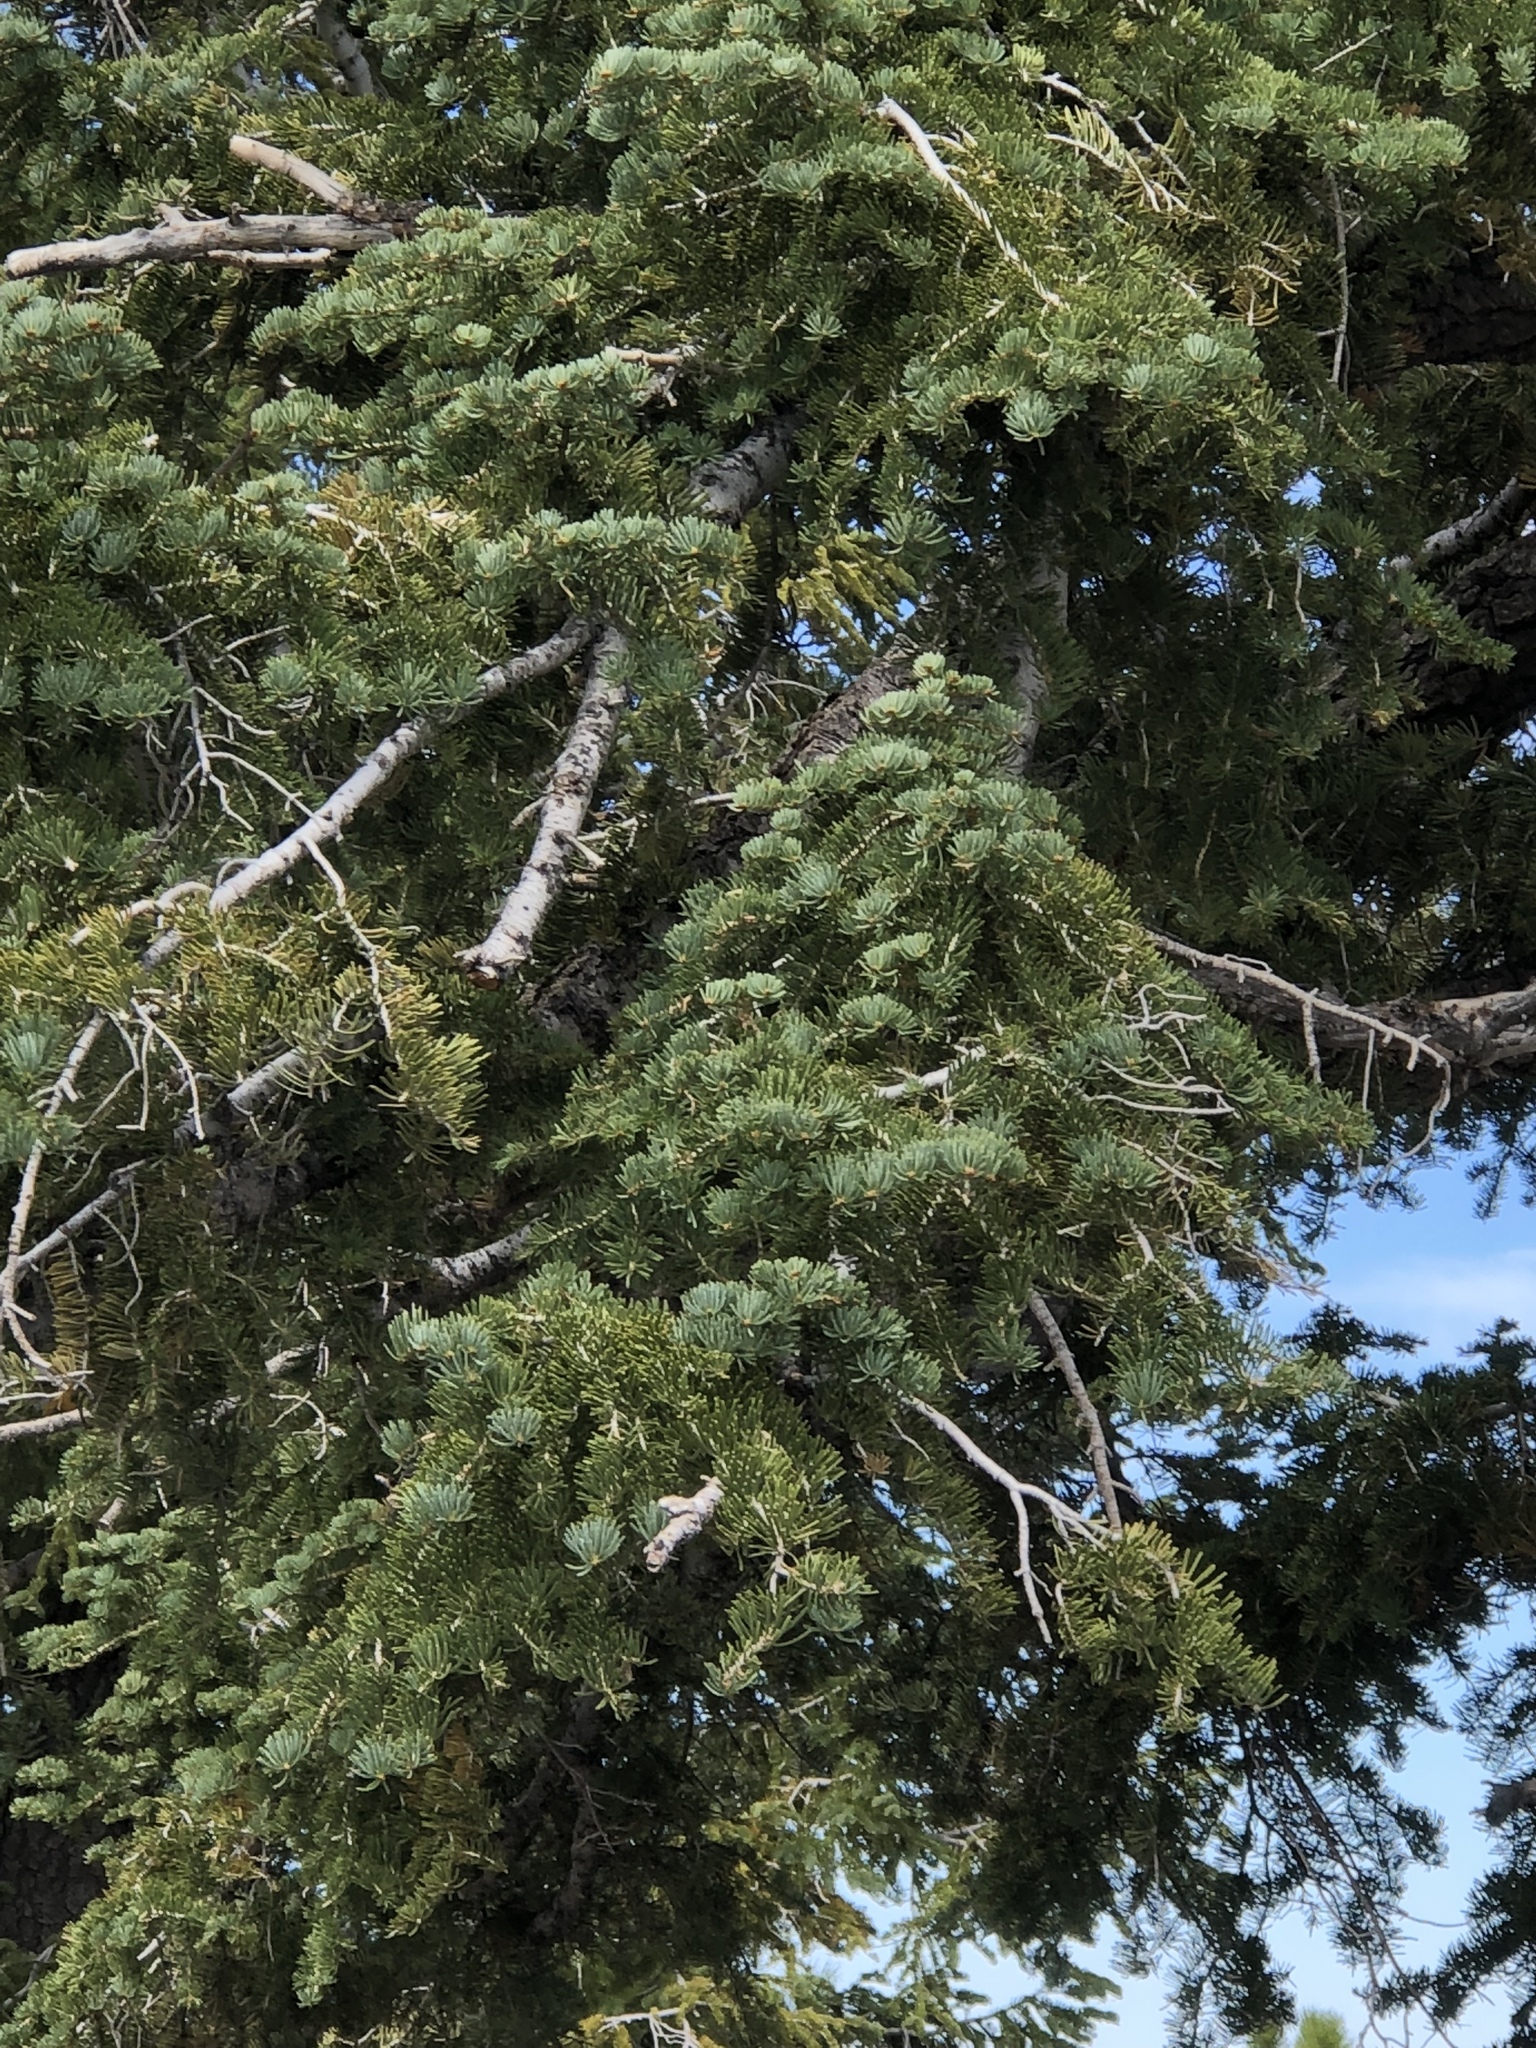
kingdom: Plantae
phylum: Tracheophyta
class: Pinopsida
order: Pinales
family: Pinaceae
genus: Abies
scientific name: Abies concolor
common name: Colorado fir
